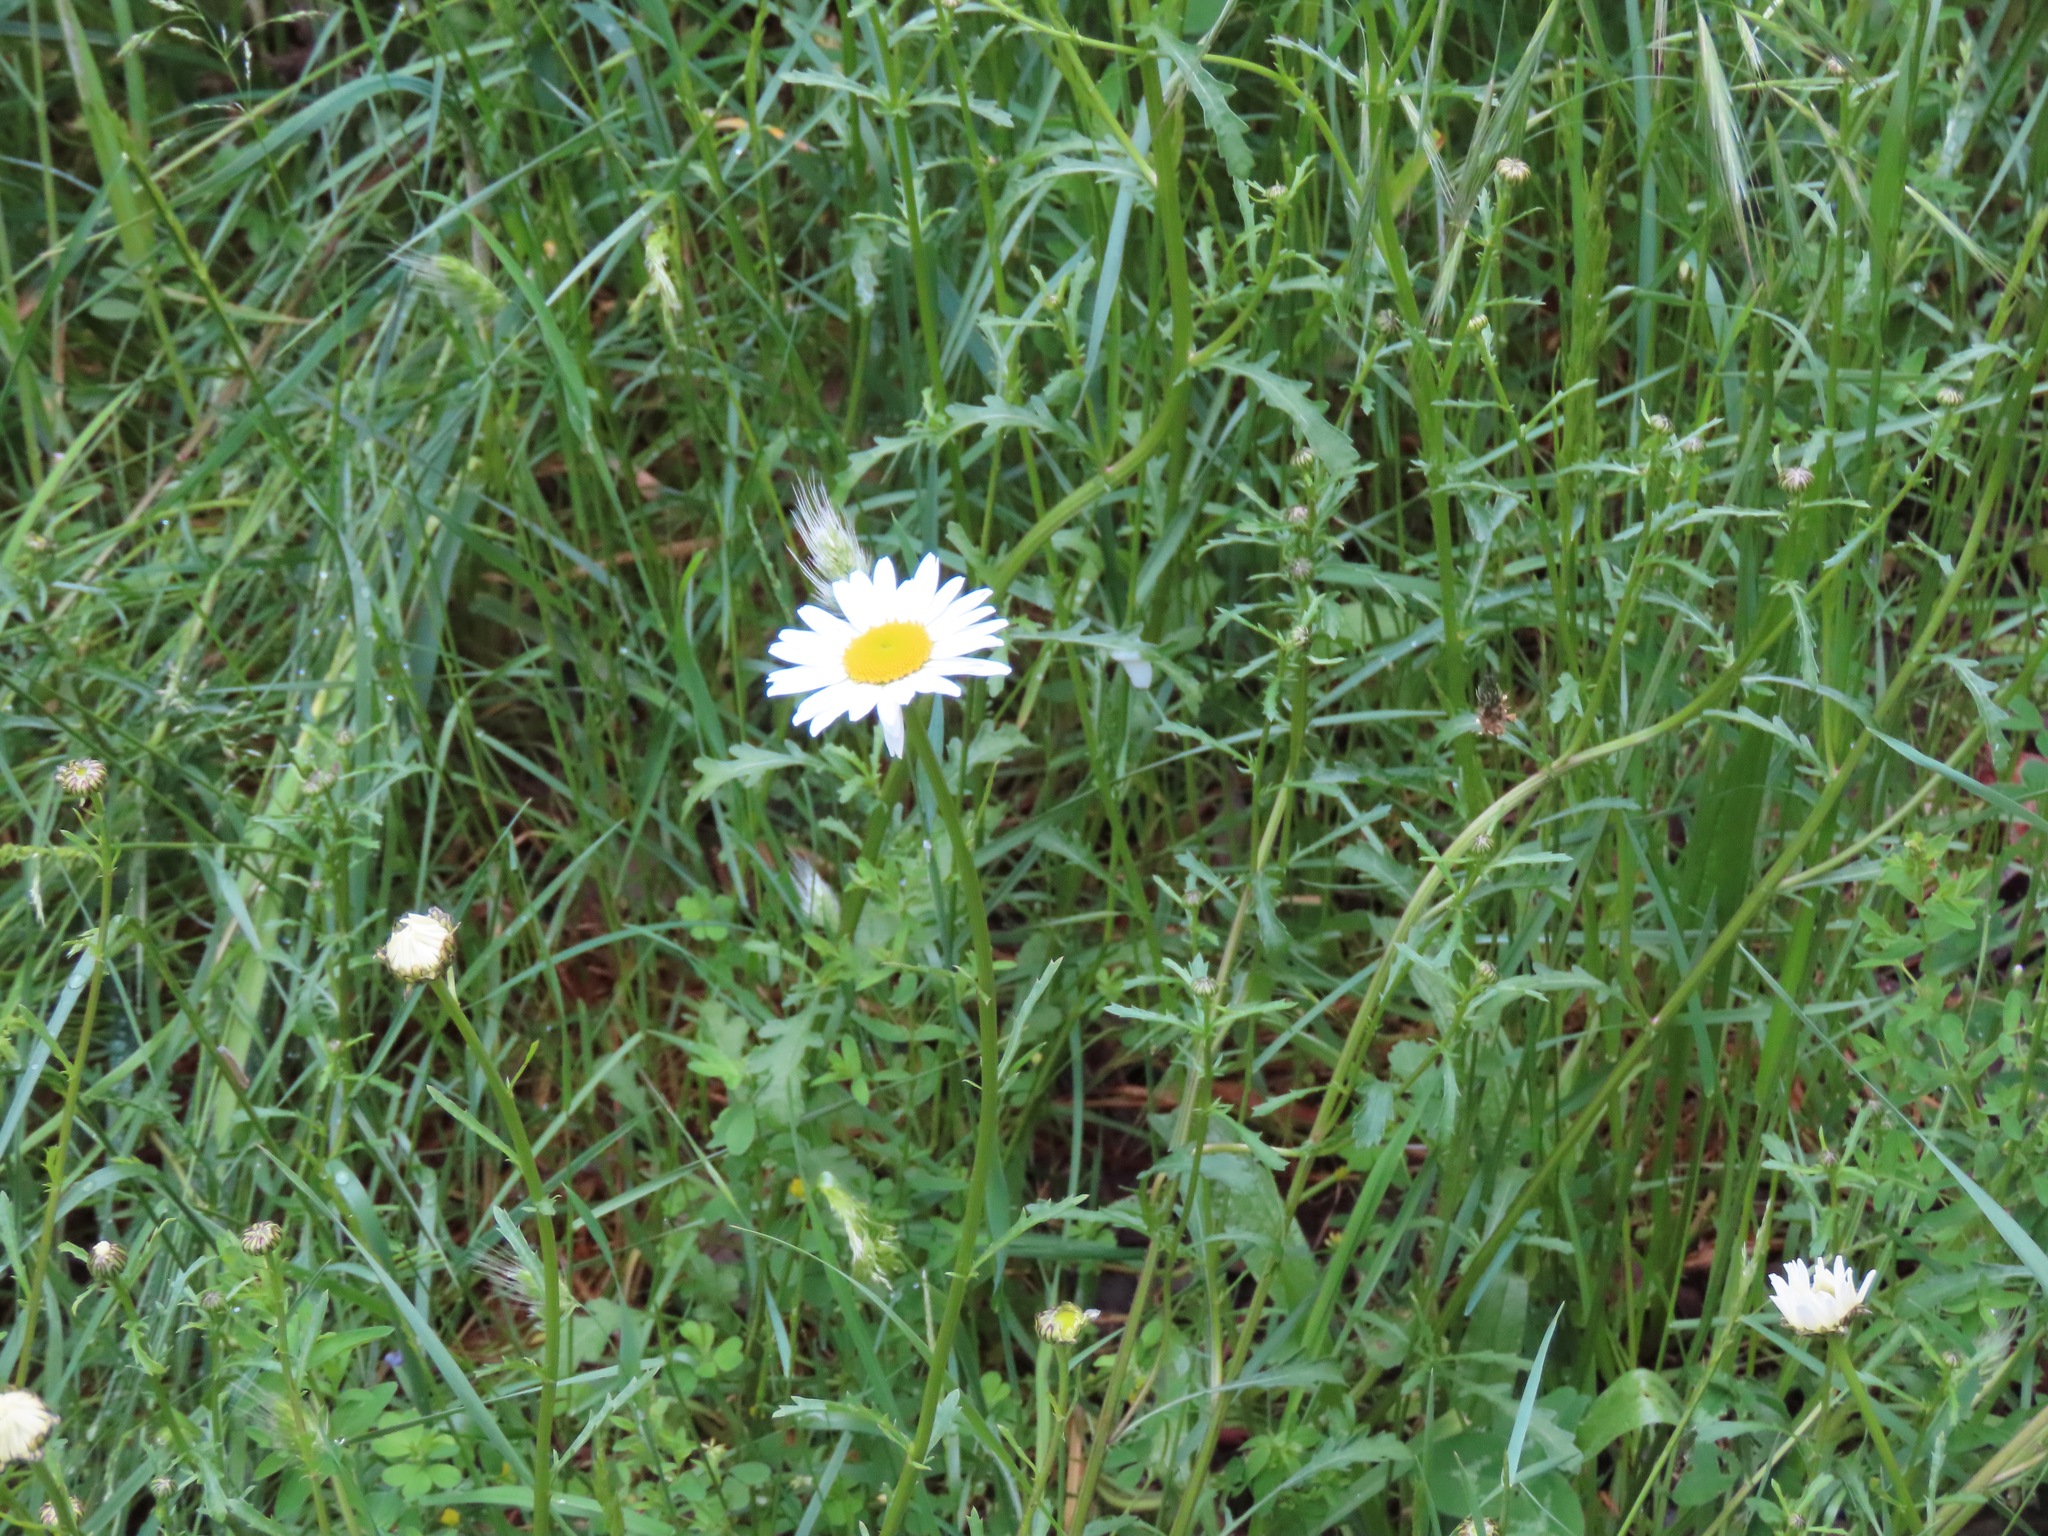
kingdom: Plantae
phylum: Tracheophyta
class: Magnoliopsida
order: Asterales
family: Asteraceae
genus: Leucanthemum
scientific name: Leucanthemum vulgare
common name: Oxeye daisy
